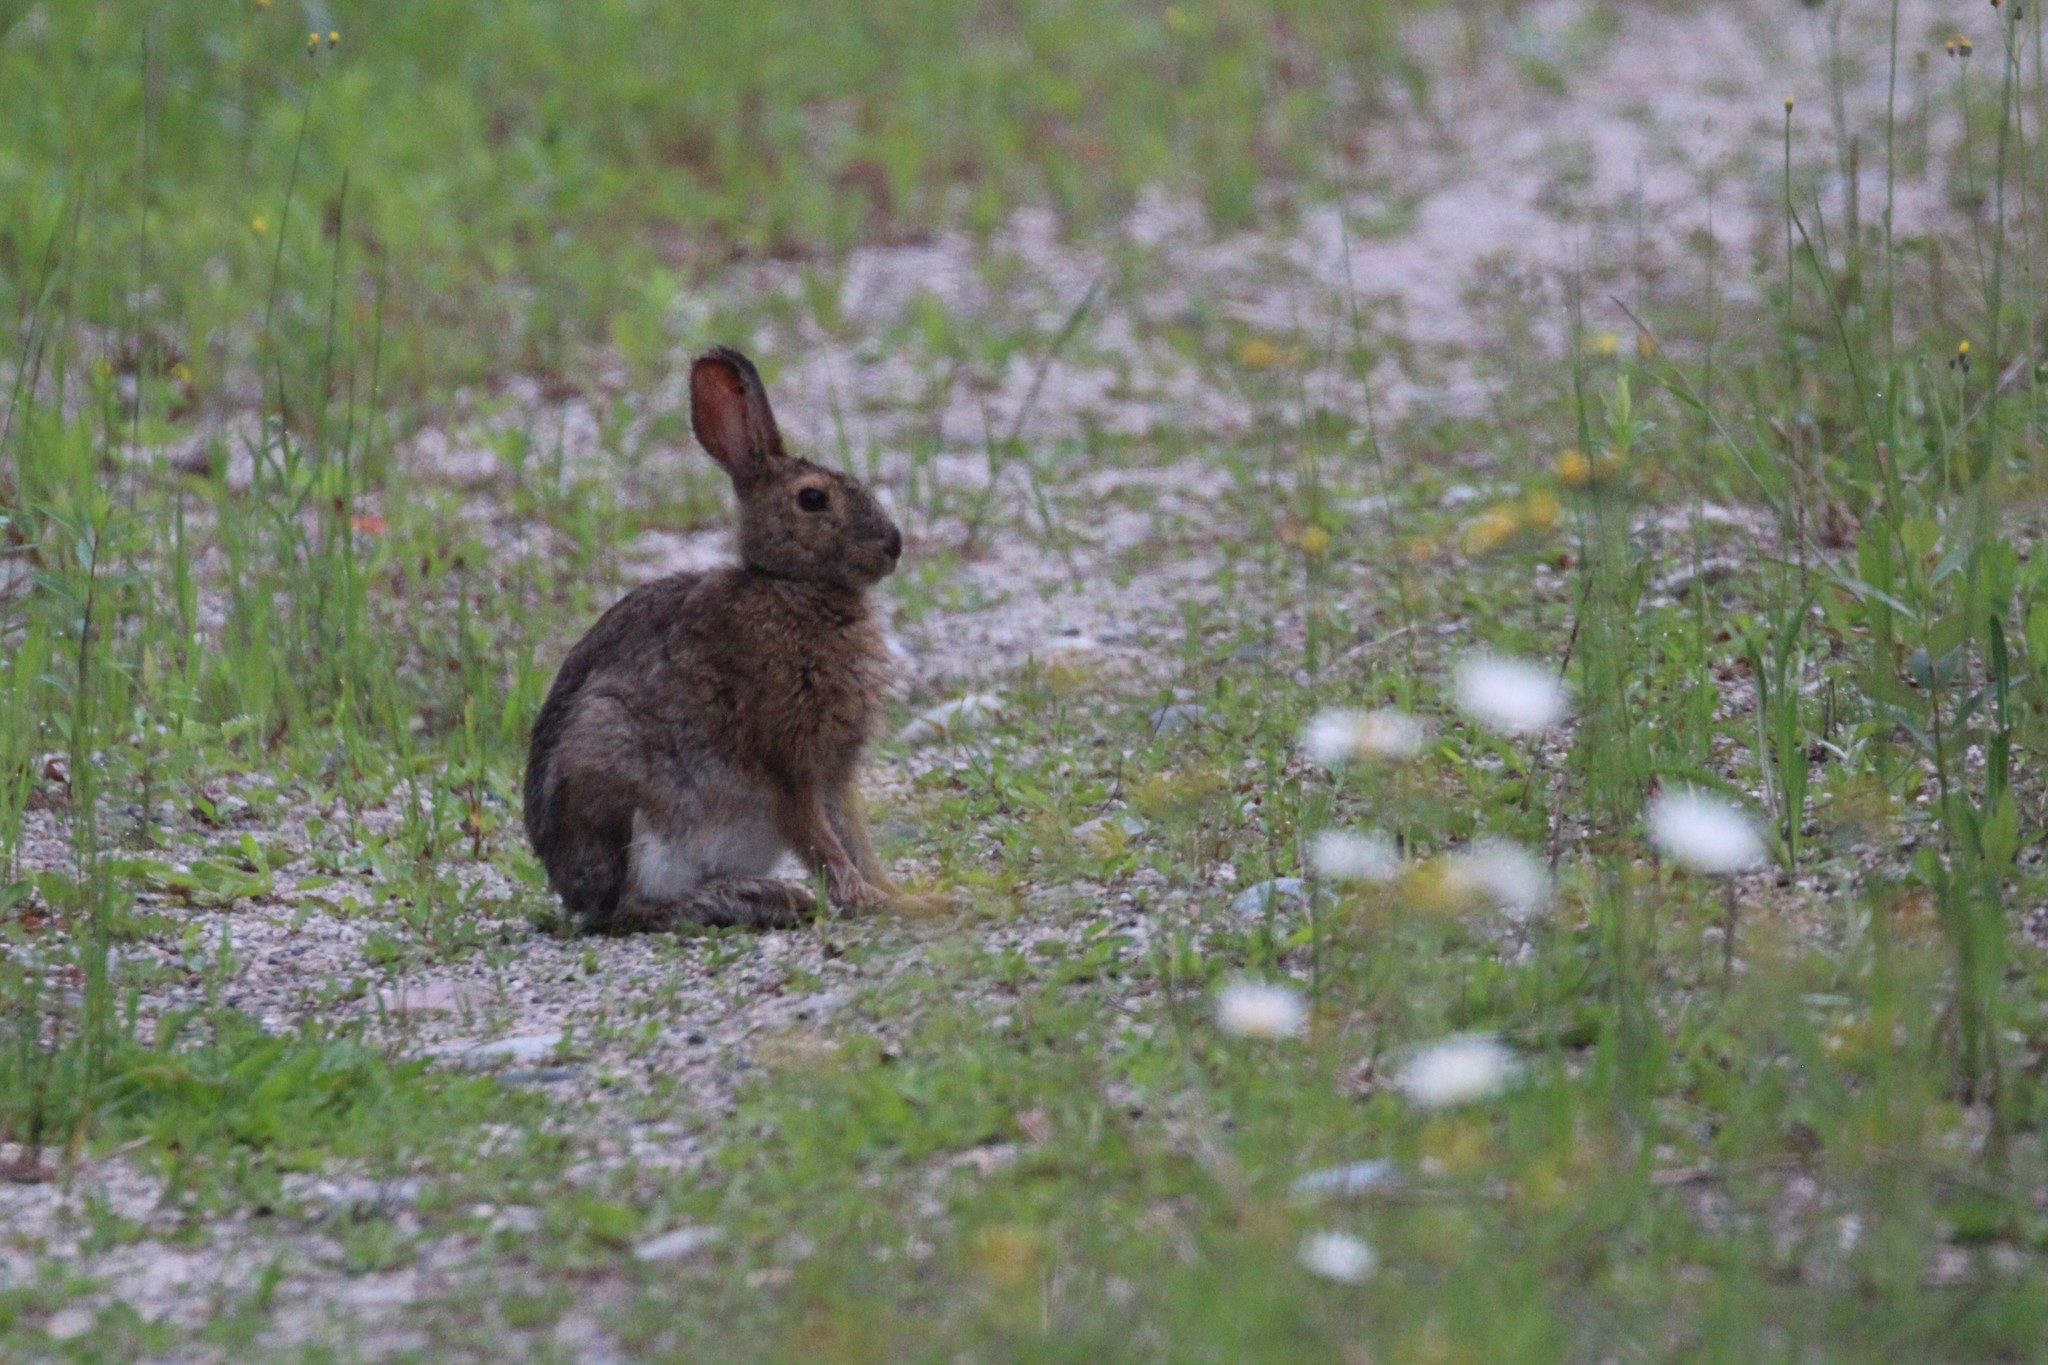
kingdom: Animalia
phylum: Chordata
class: Mammalia
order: Lagomorpha
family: Leporidae
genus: Lepus
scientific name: Lepus americanus
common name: Snowshoe hare
